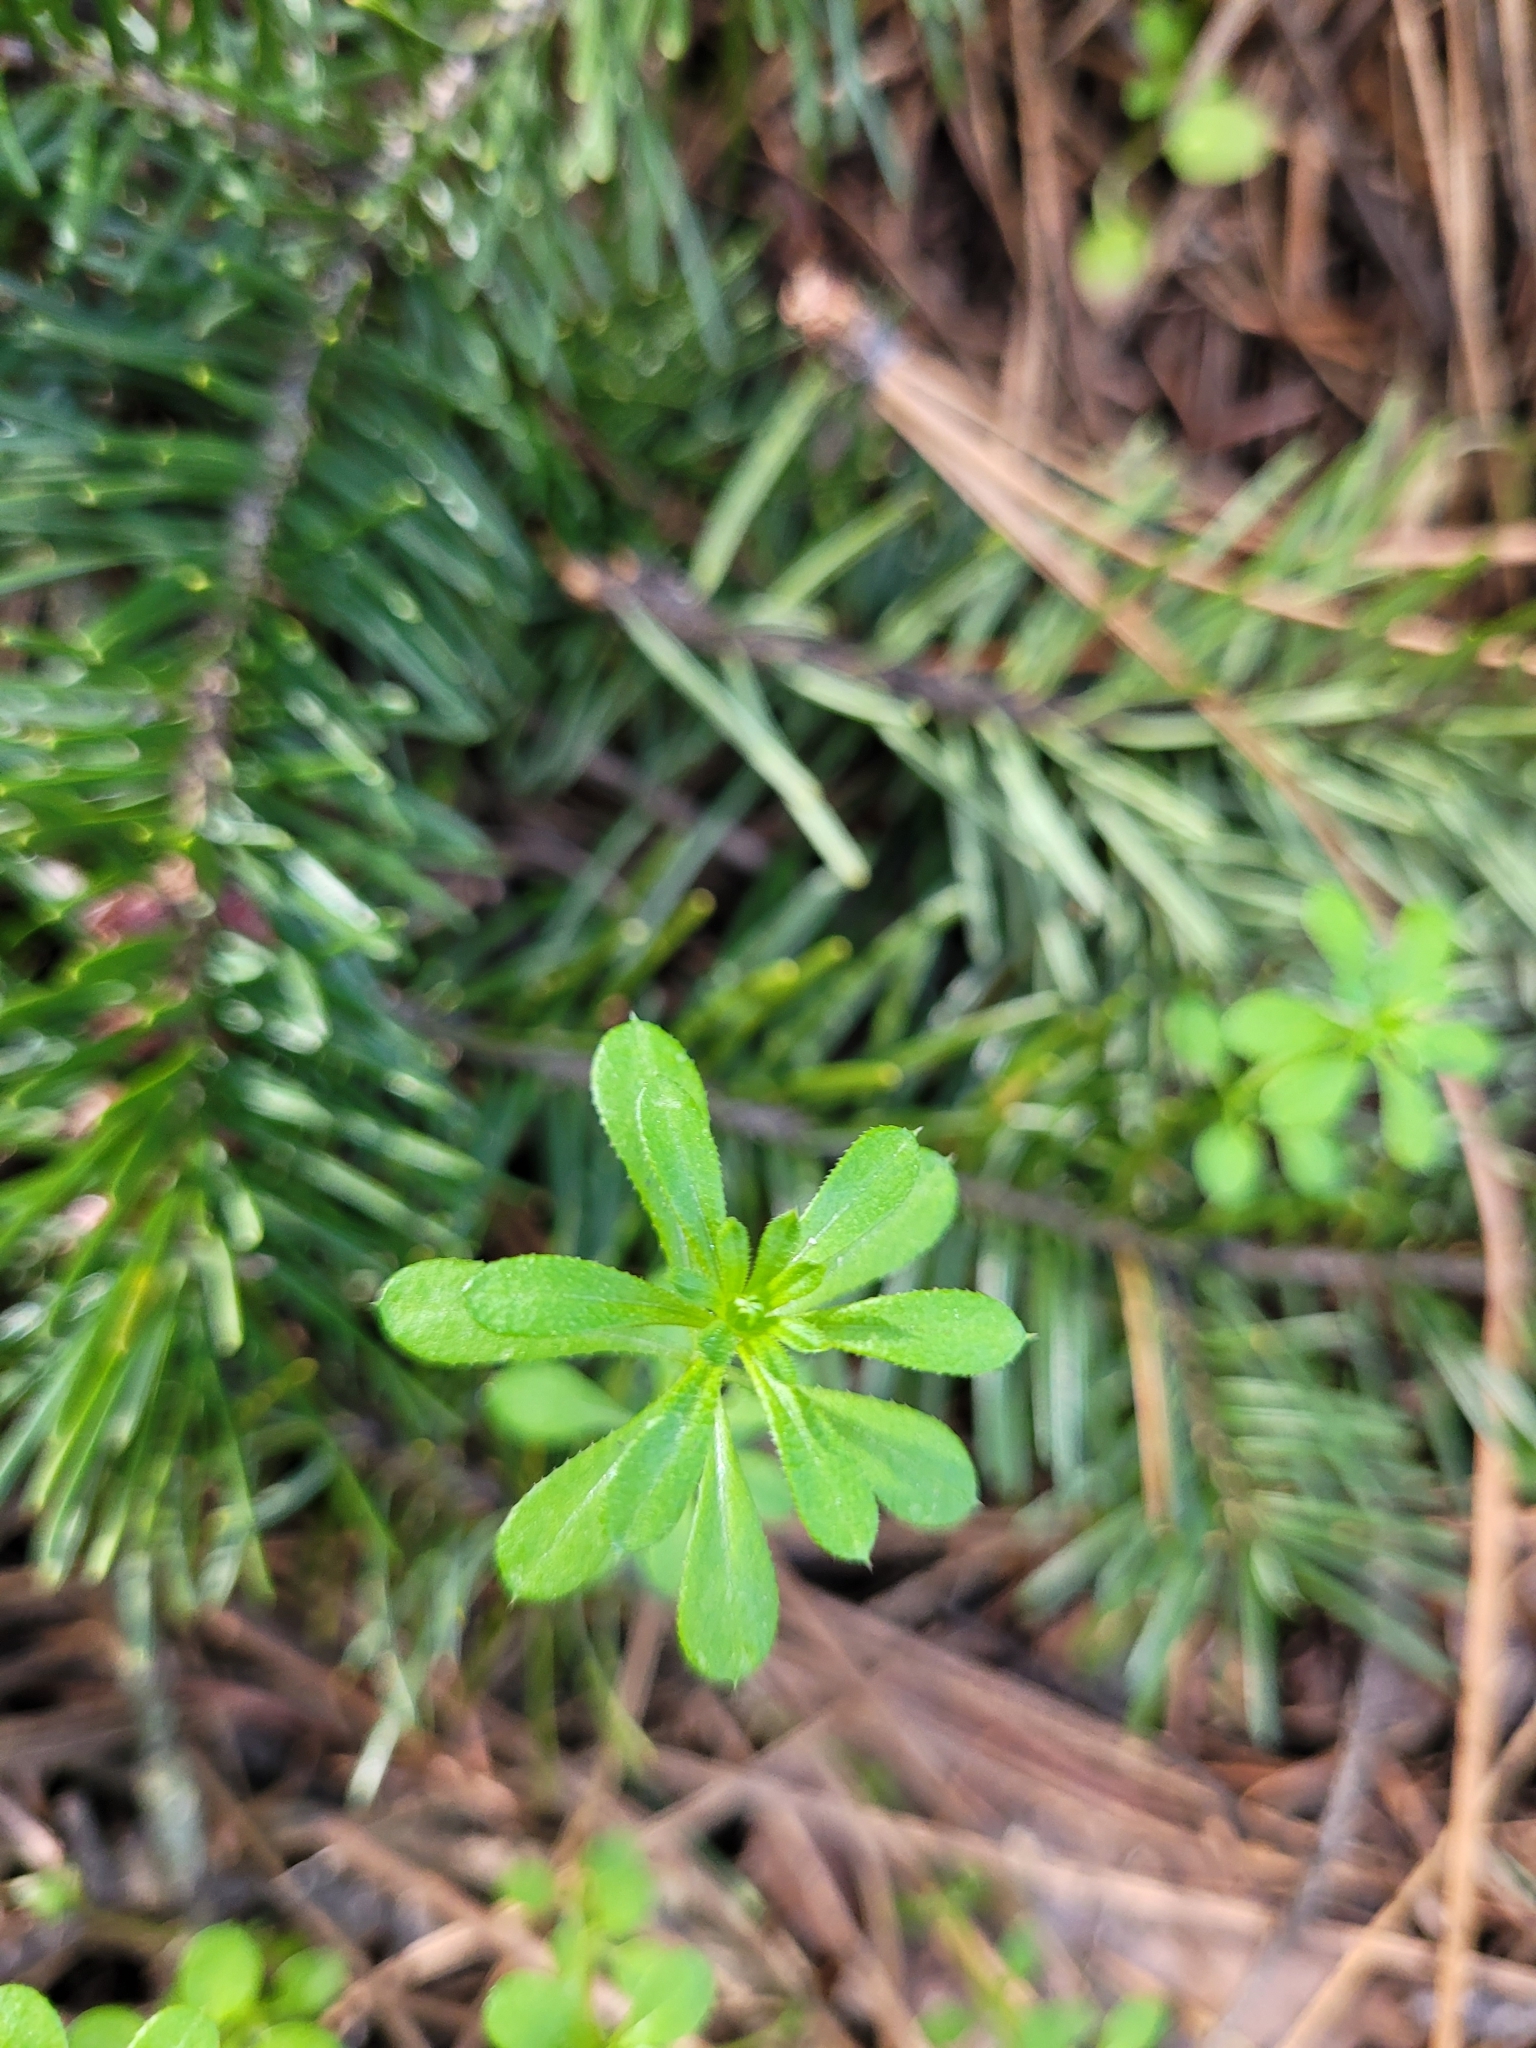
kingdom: Plantae
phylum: Tracheophyta
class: Magnoliopsida
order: Gentianales
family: Rubiaceae
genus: Galium
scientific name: Galium aparine
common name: Cleavers
